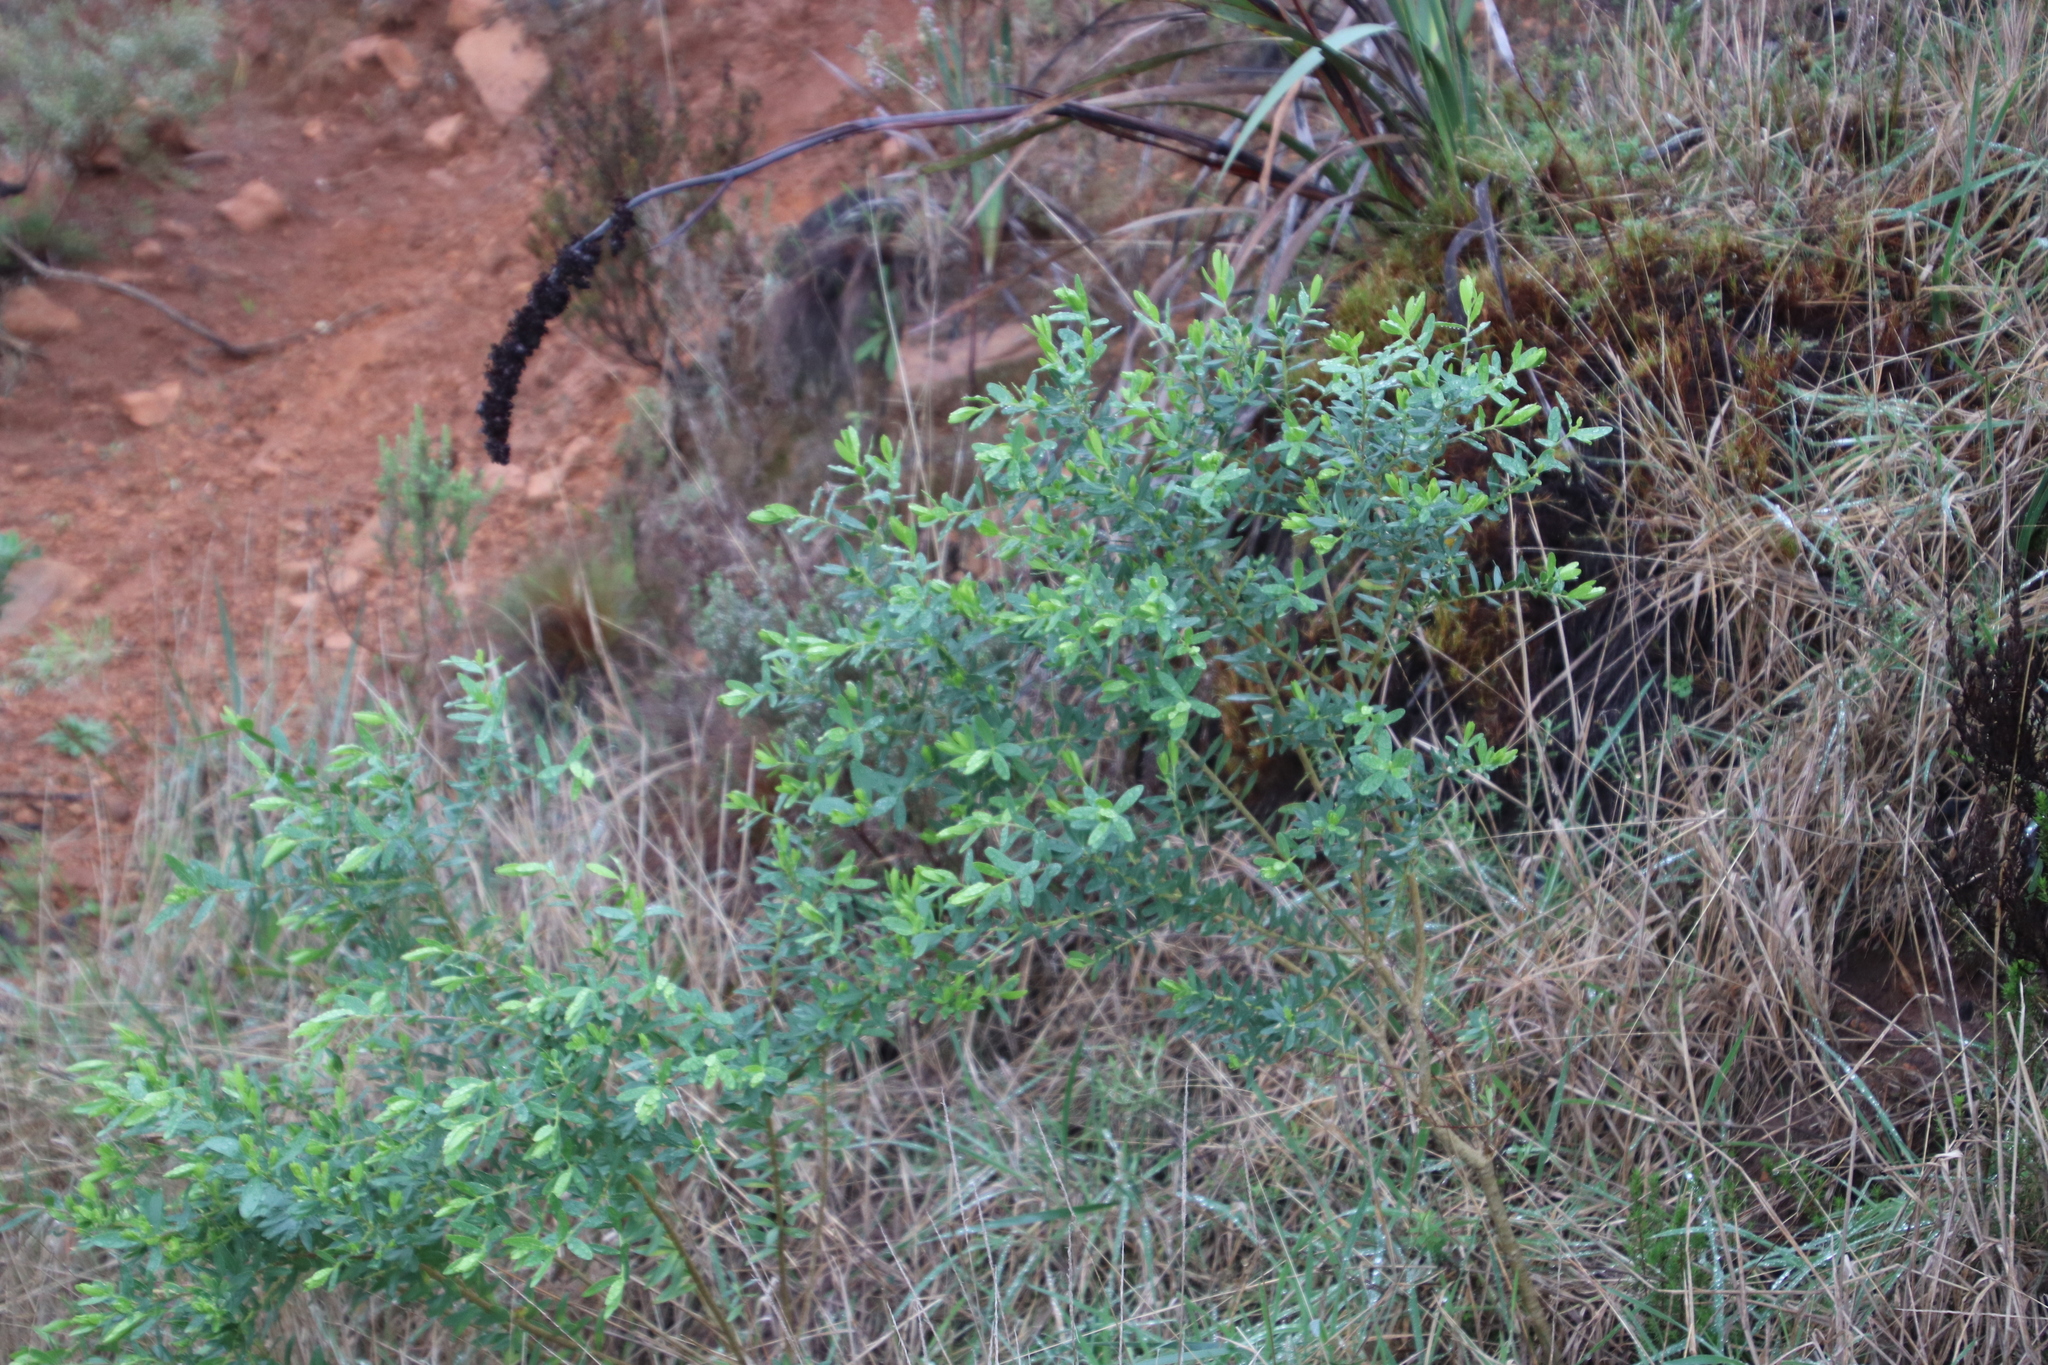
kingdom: Plantae
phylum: Tracheophyta
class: Magnoliopsida
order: Fabales
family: Polygalaceae
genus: Polygala
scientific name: Polygala myrtifolia
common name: Myrtle-leaf milkwort
